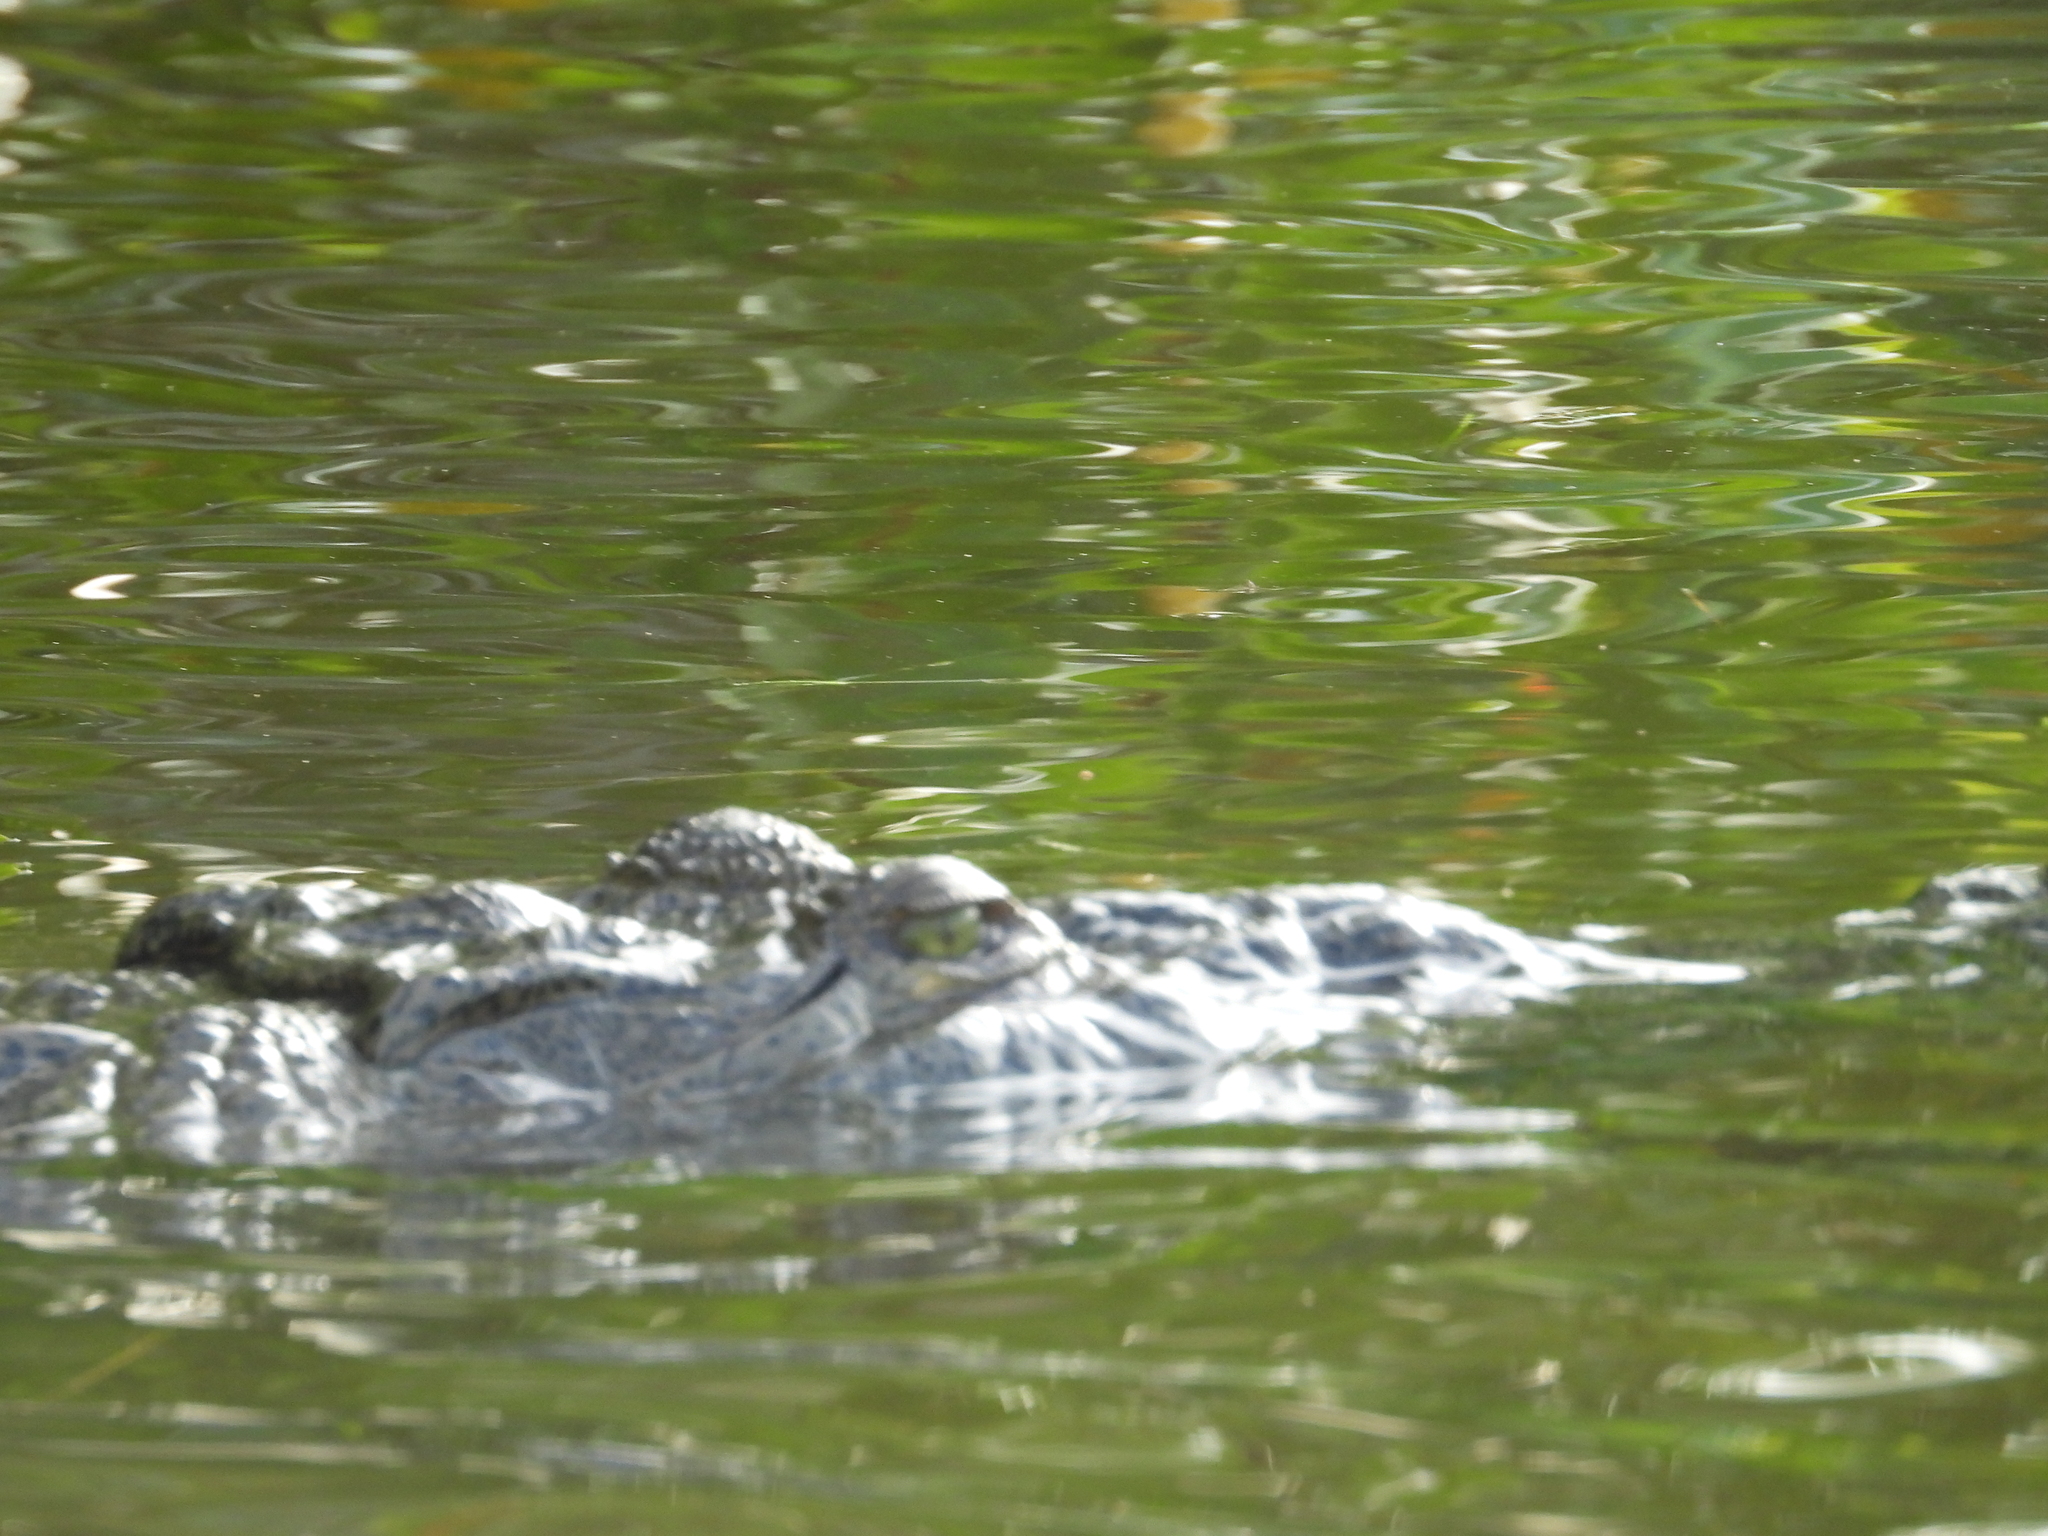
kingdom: Animalia
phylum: Chordata
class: Crocodylia
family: Crocodylidae
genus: Crocodylus
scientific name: Crocodylus moreletii
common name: Morelet's crocodile
